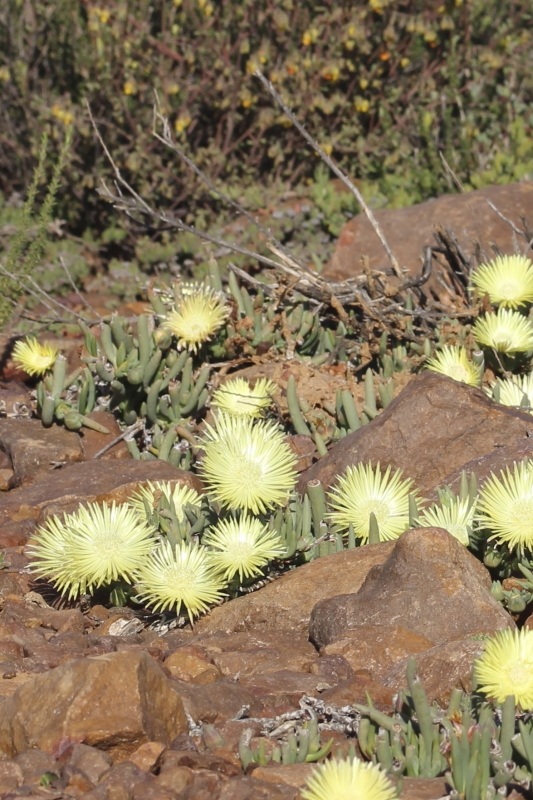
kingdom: Plantae
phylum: Tracheophyta
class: Magnoliopsida
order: Caryophyllales
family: Aizoaceae
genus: Cephalophyllum
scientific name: Cephalophyllum loreum
